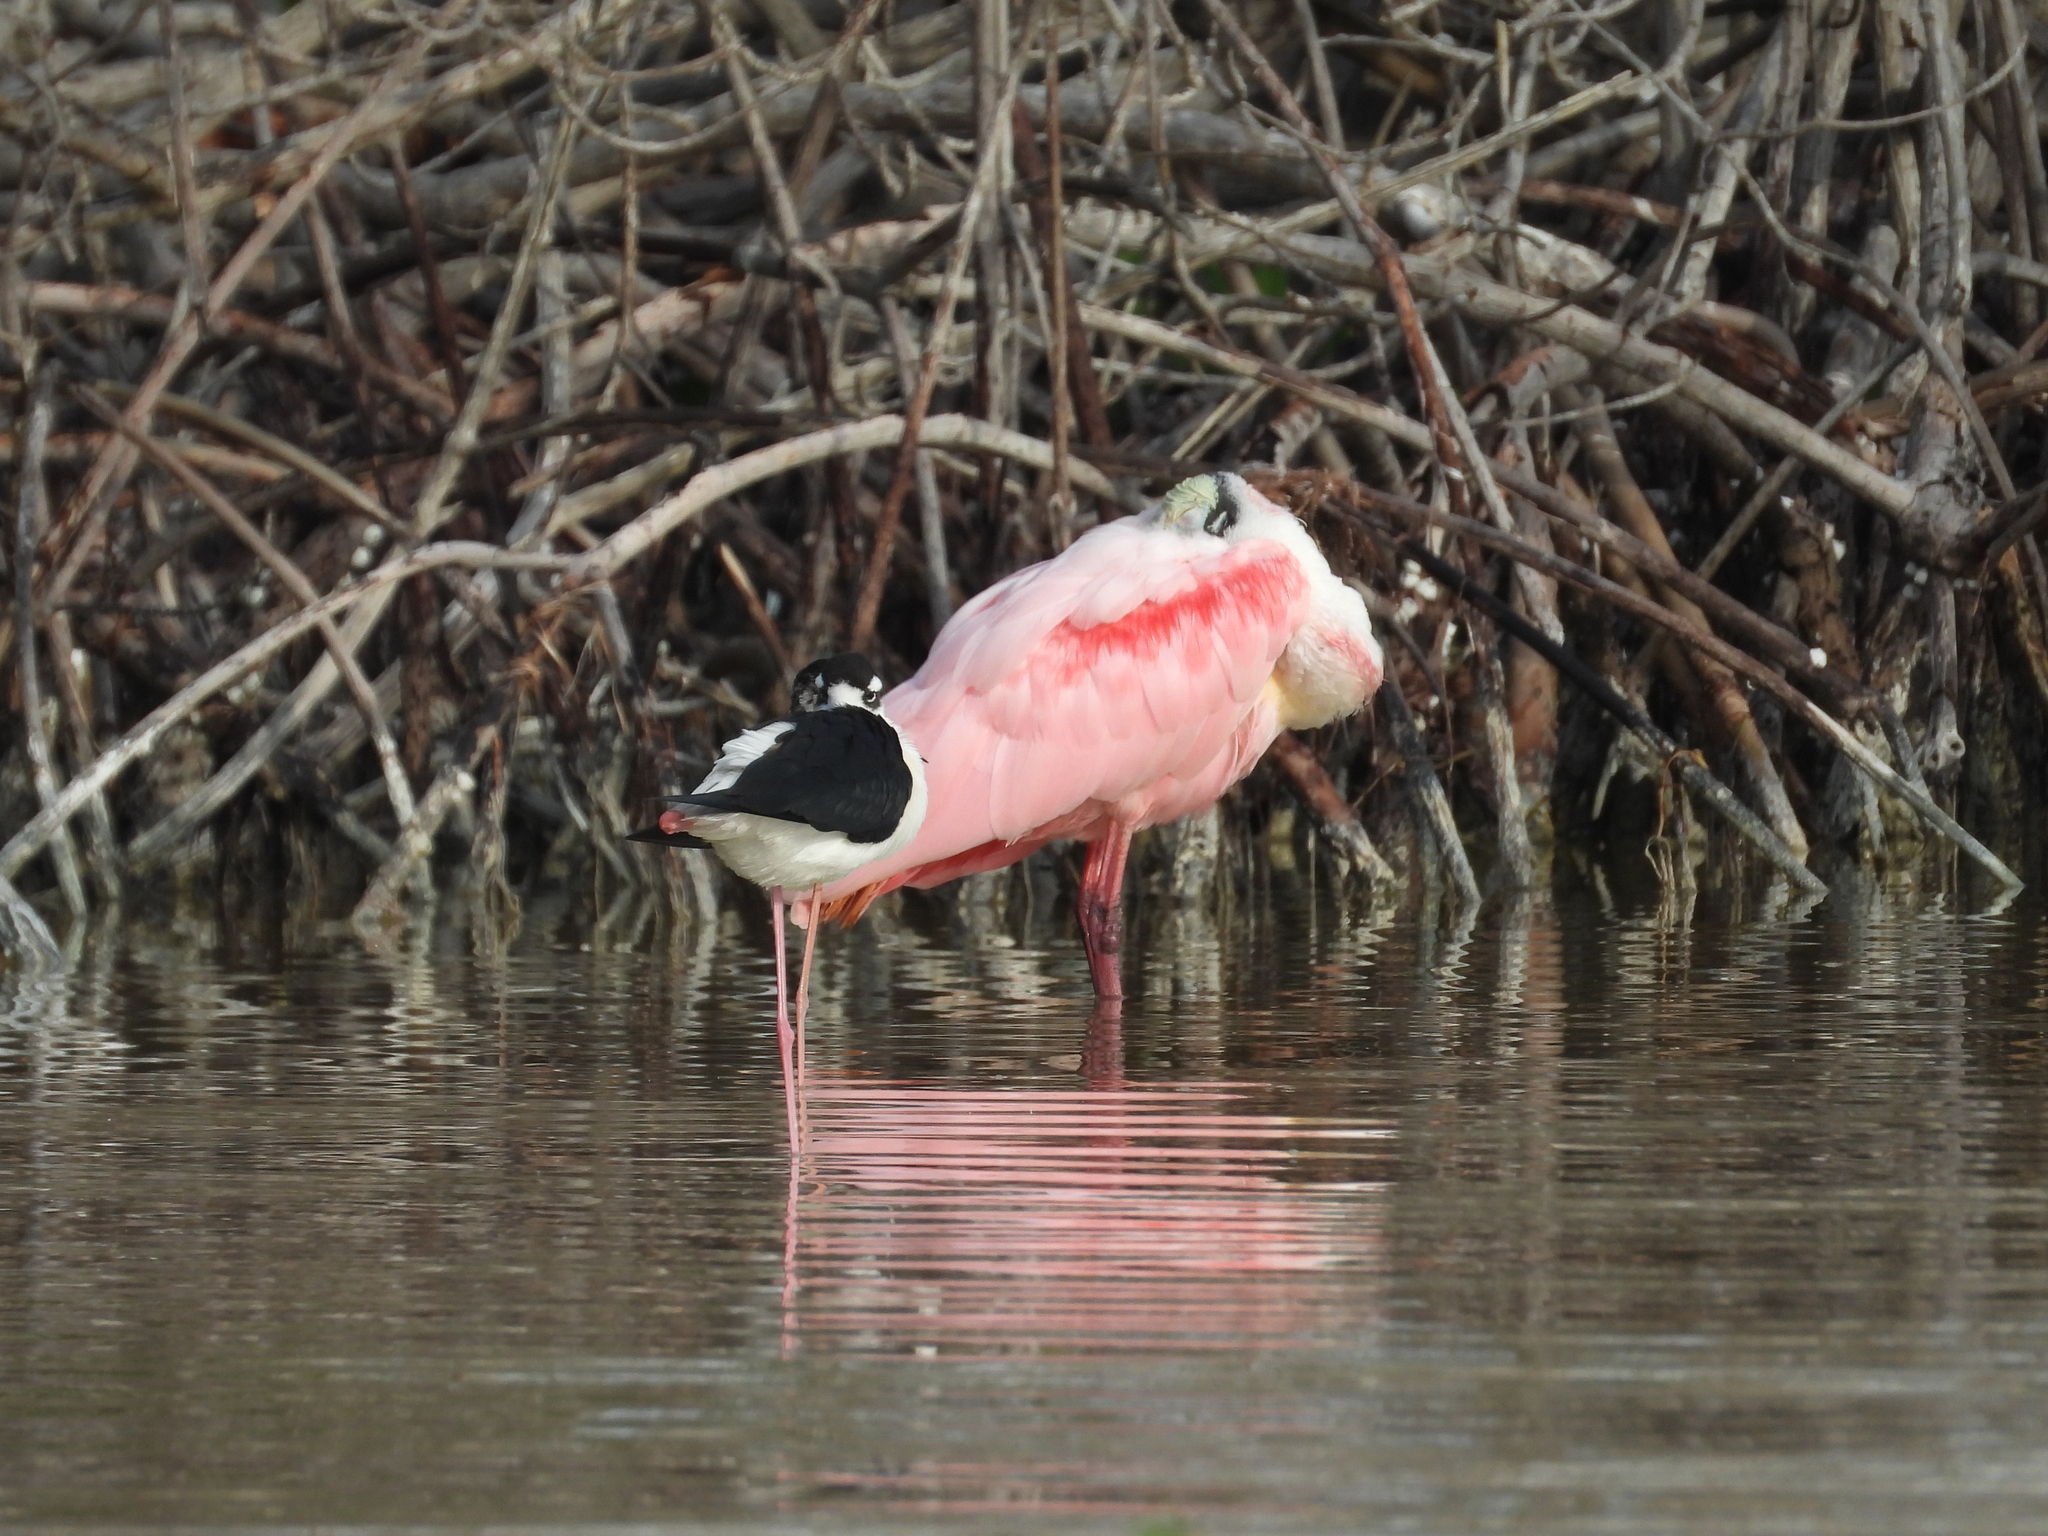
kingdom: Animalia
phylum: Chordata
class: Aves
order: Pelecaniformes
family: Threskiornithidae
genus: Platalea
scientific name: Platalea ajaja
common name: Roseate spoonbill
